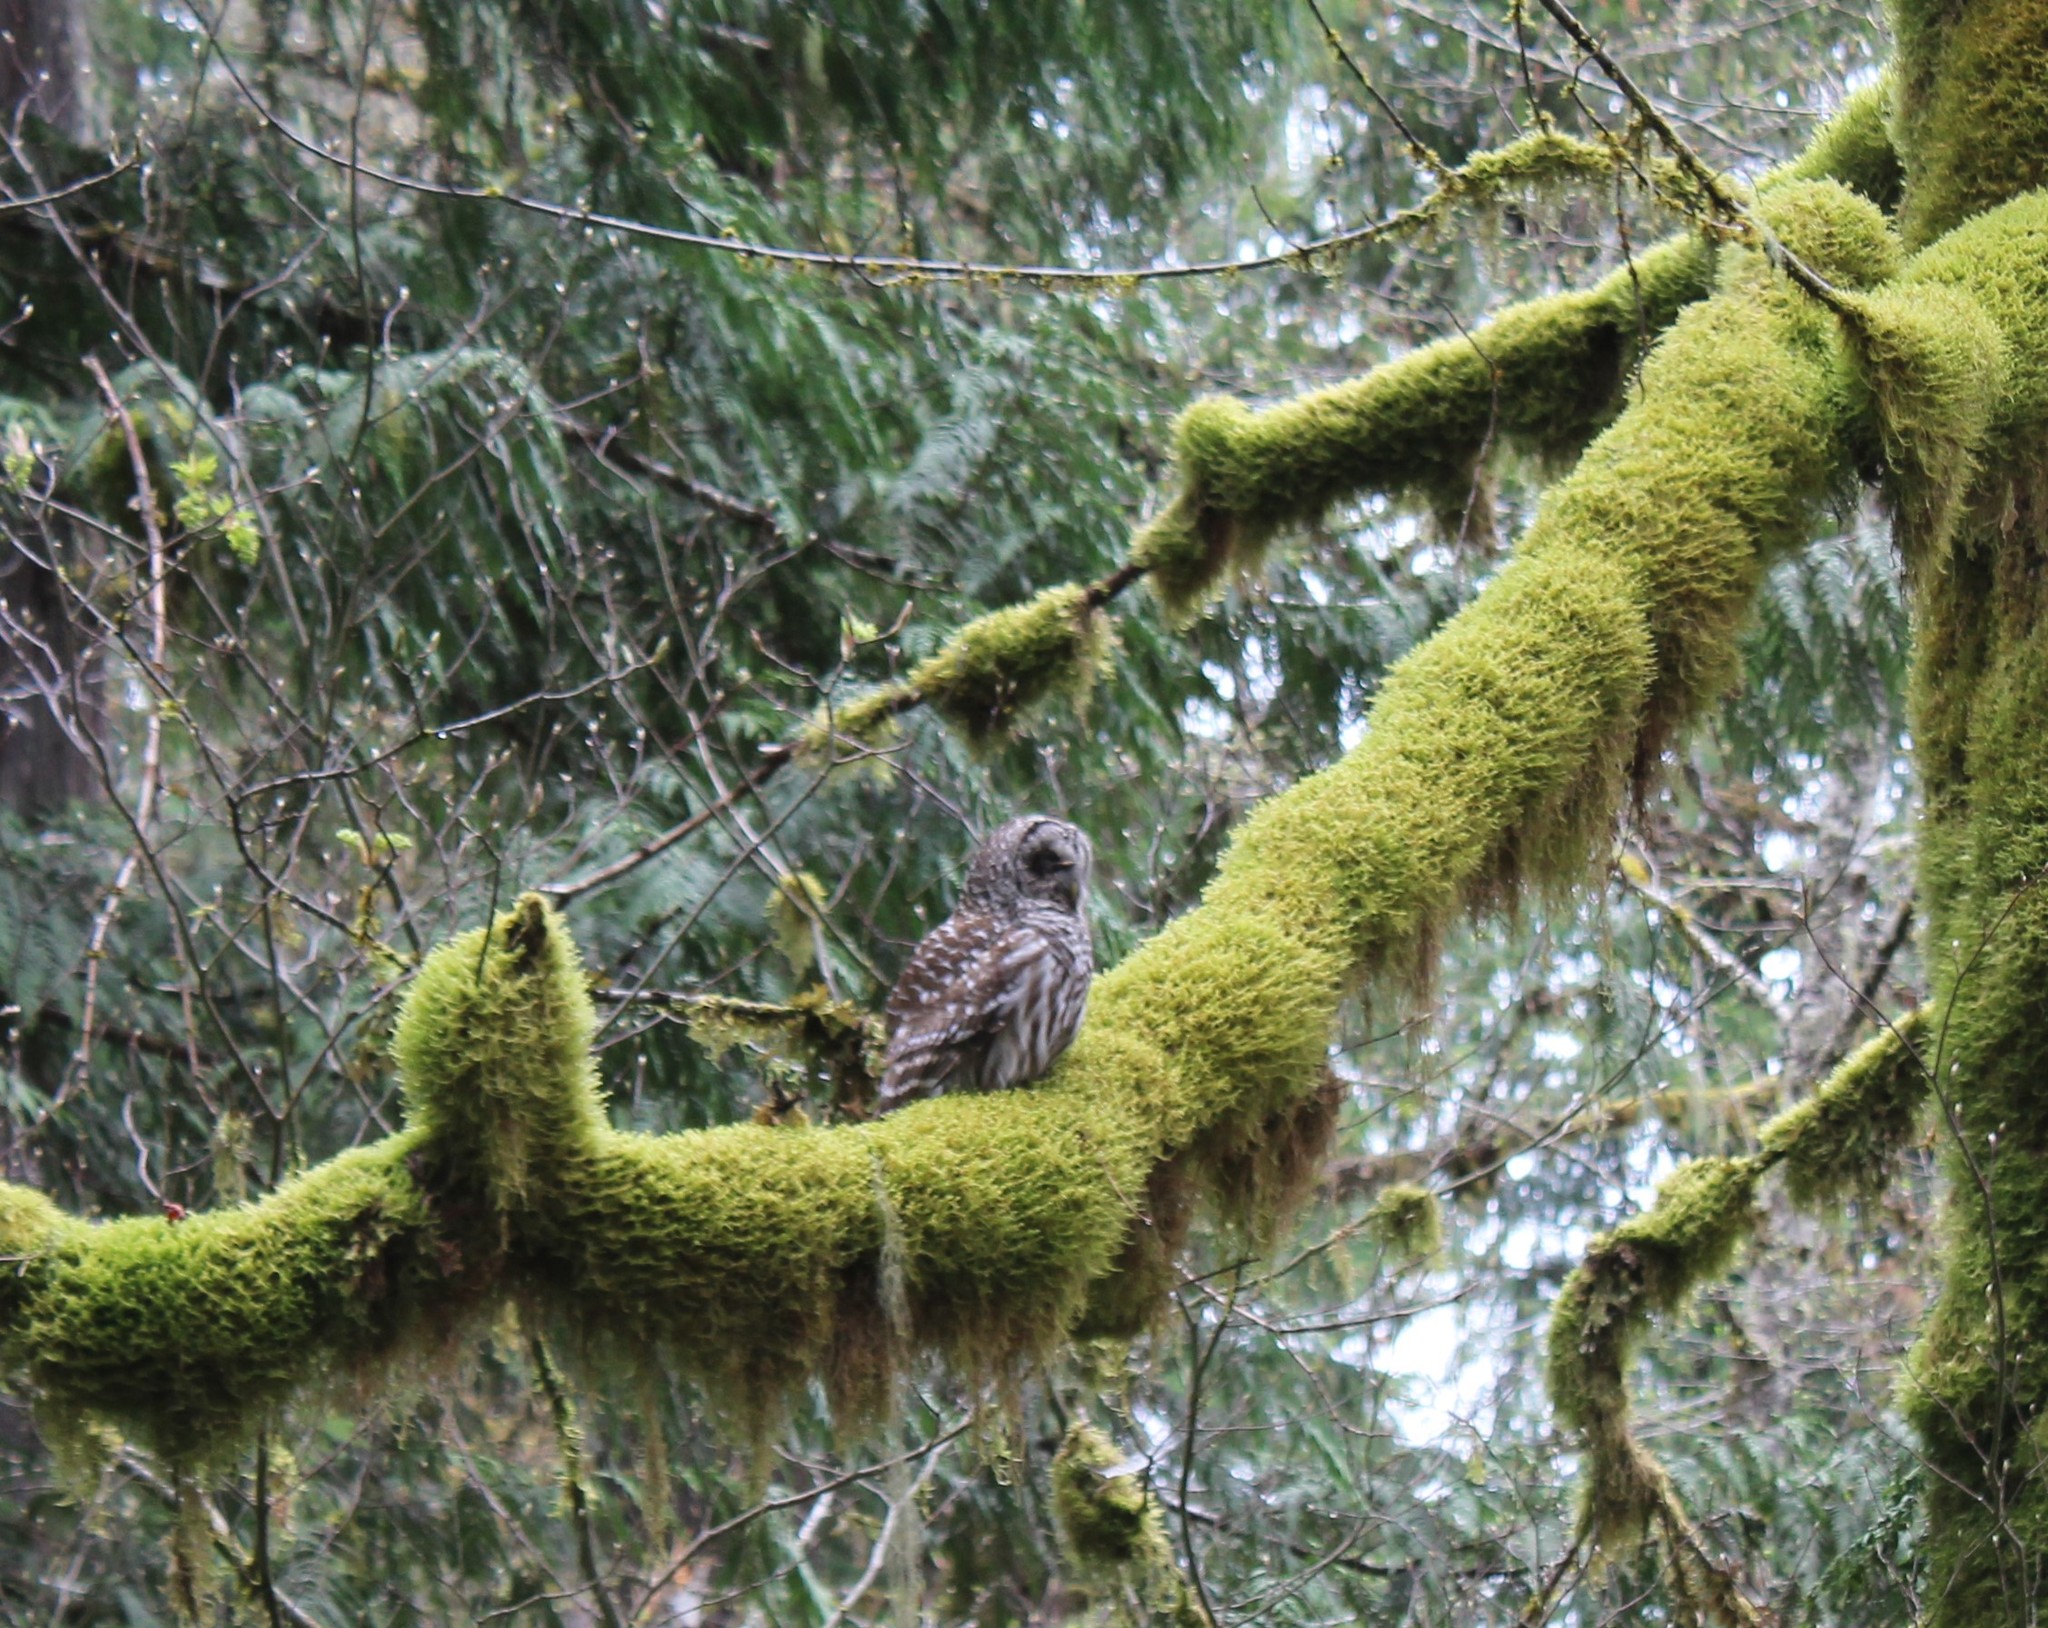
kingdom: Animalia
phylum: Chordata
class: Aves
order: Strigiformes
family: Strigidae
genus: Strix
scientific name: Strix varia
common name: Barred owl
